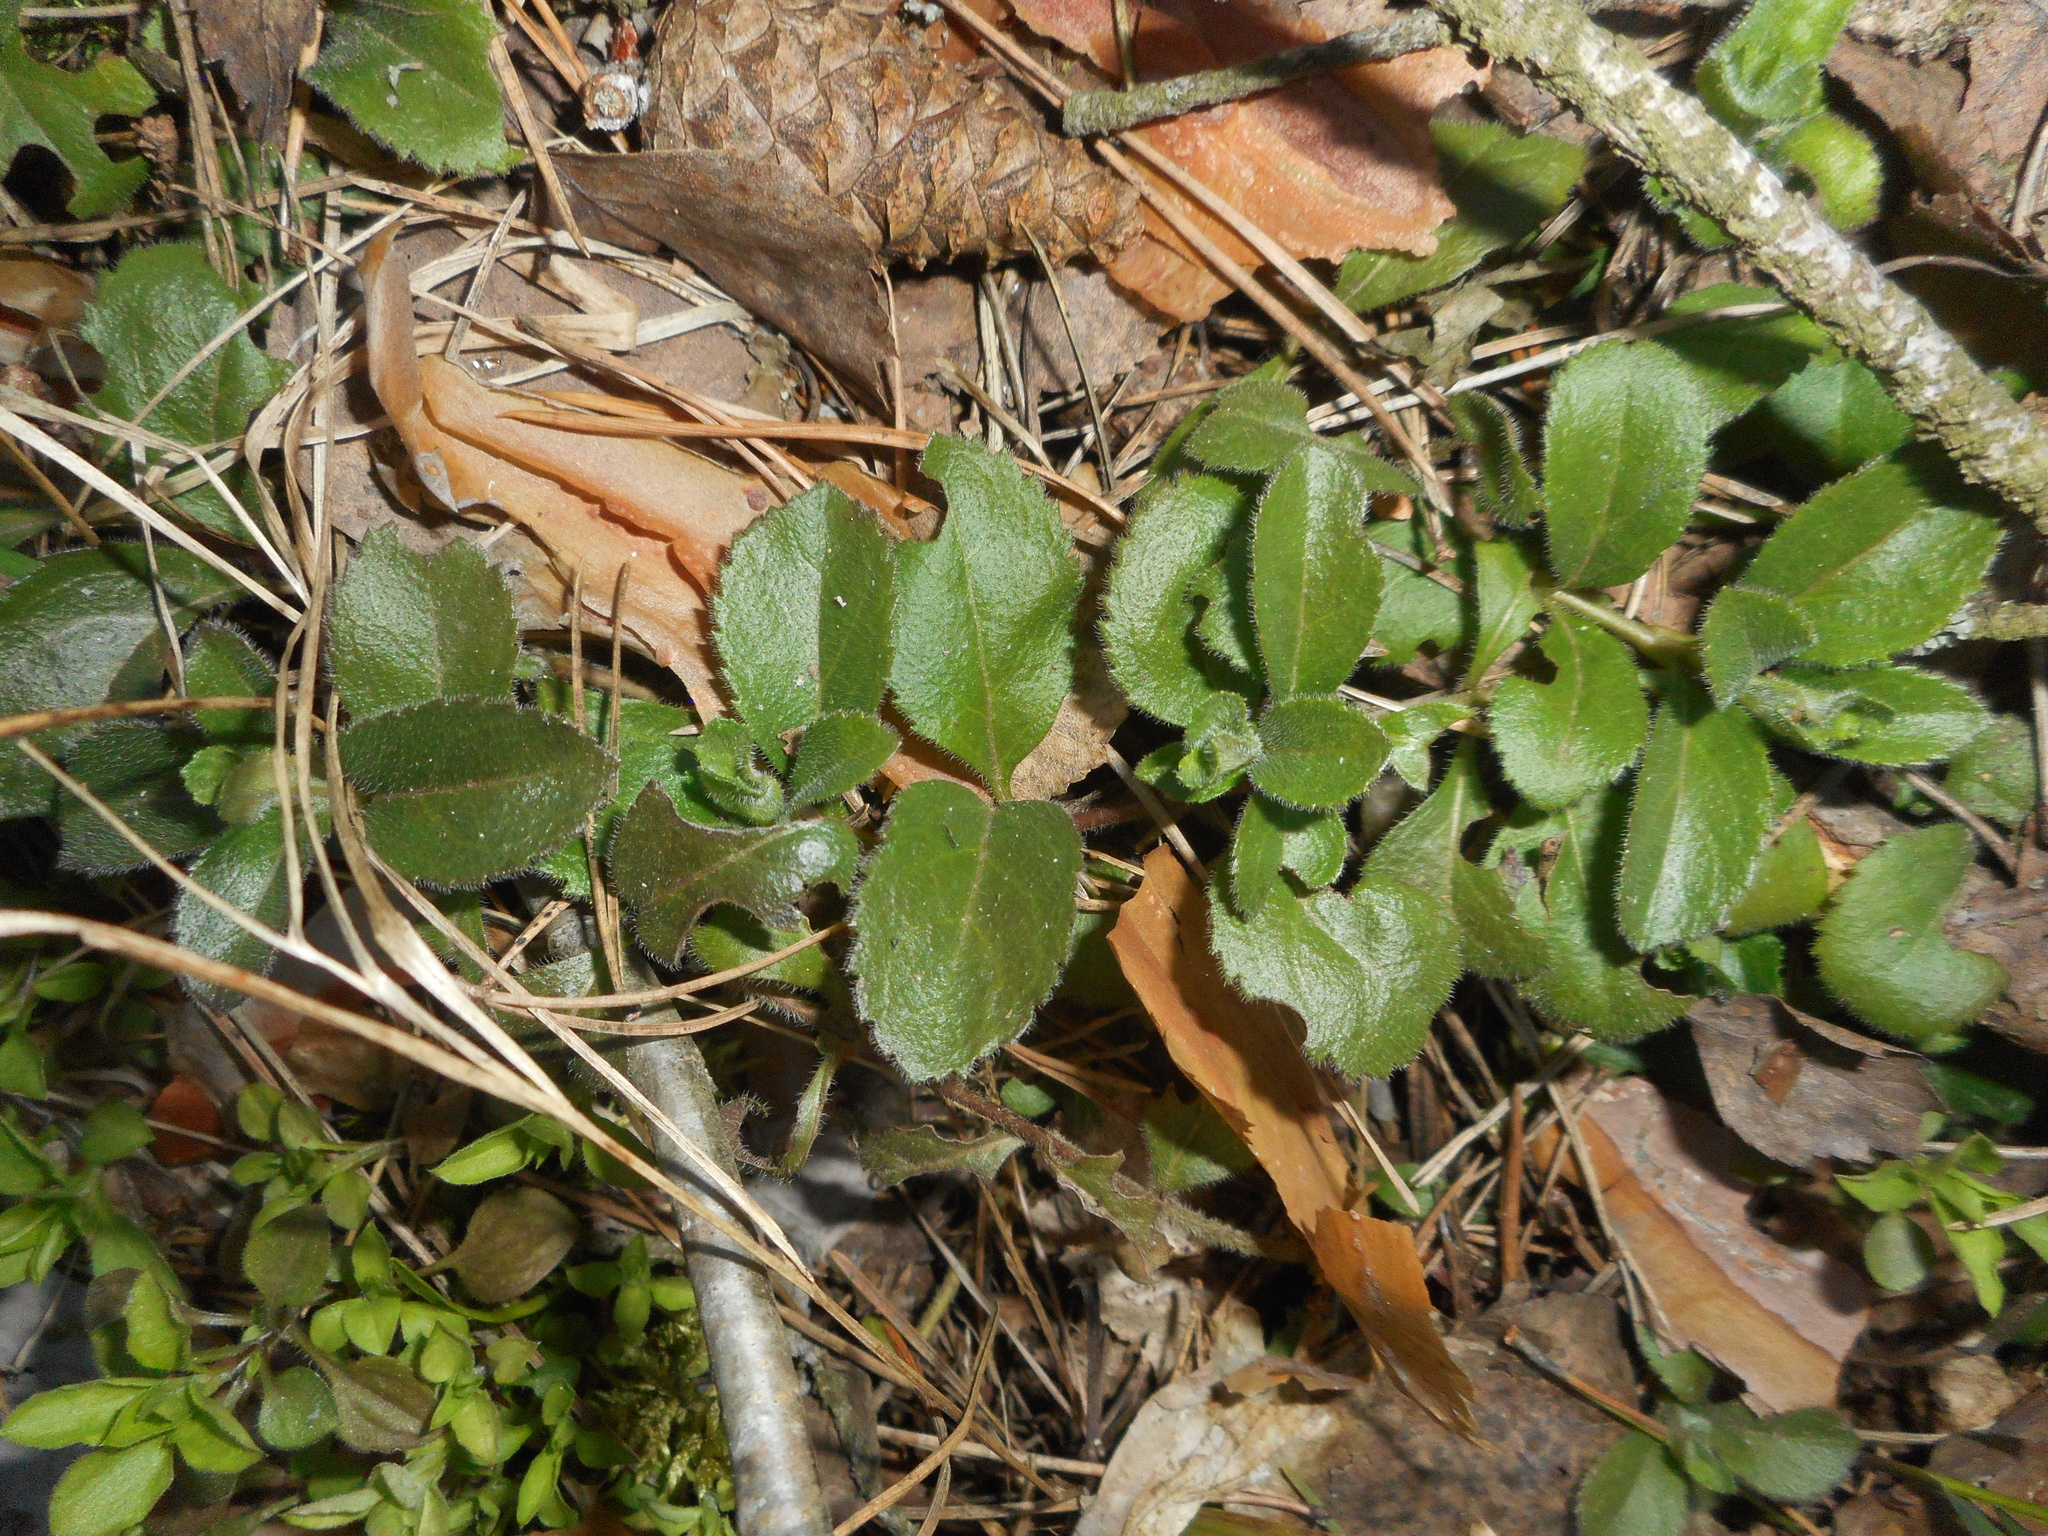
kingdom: Plantae
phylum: Tracheophyta
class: Magnoliopsida
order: Lamiales
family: Plantaginaceae
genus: Veronica
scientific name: Veronica officinalis
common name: Common speedwell
